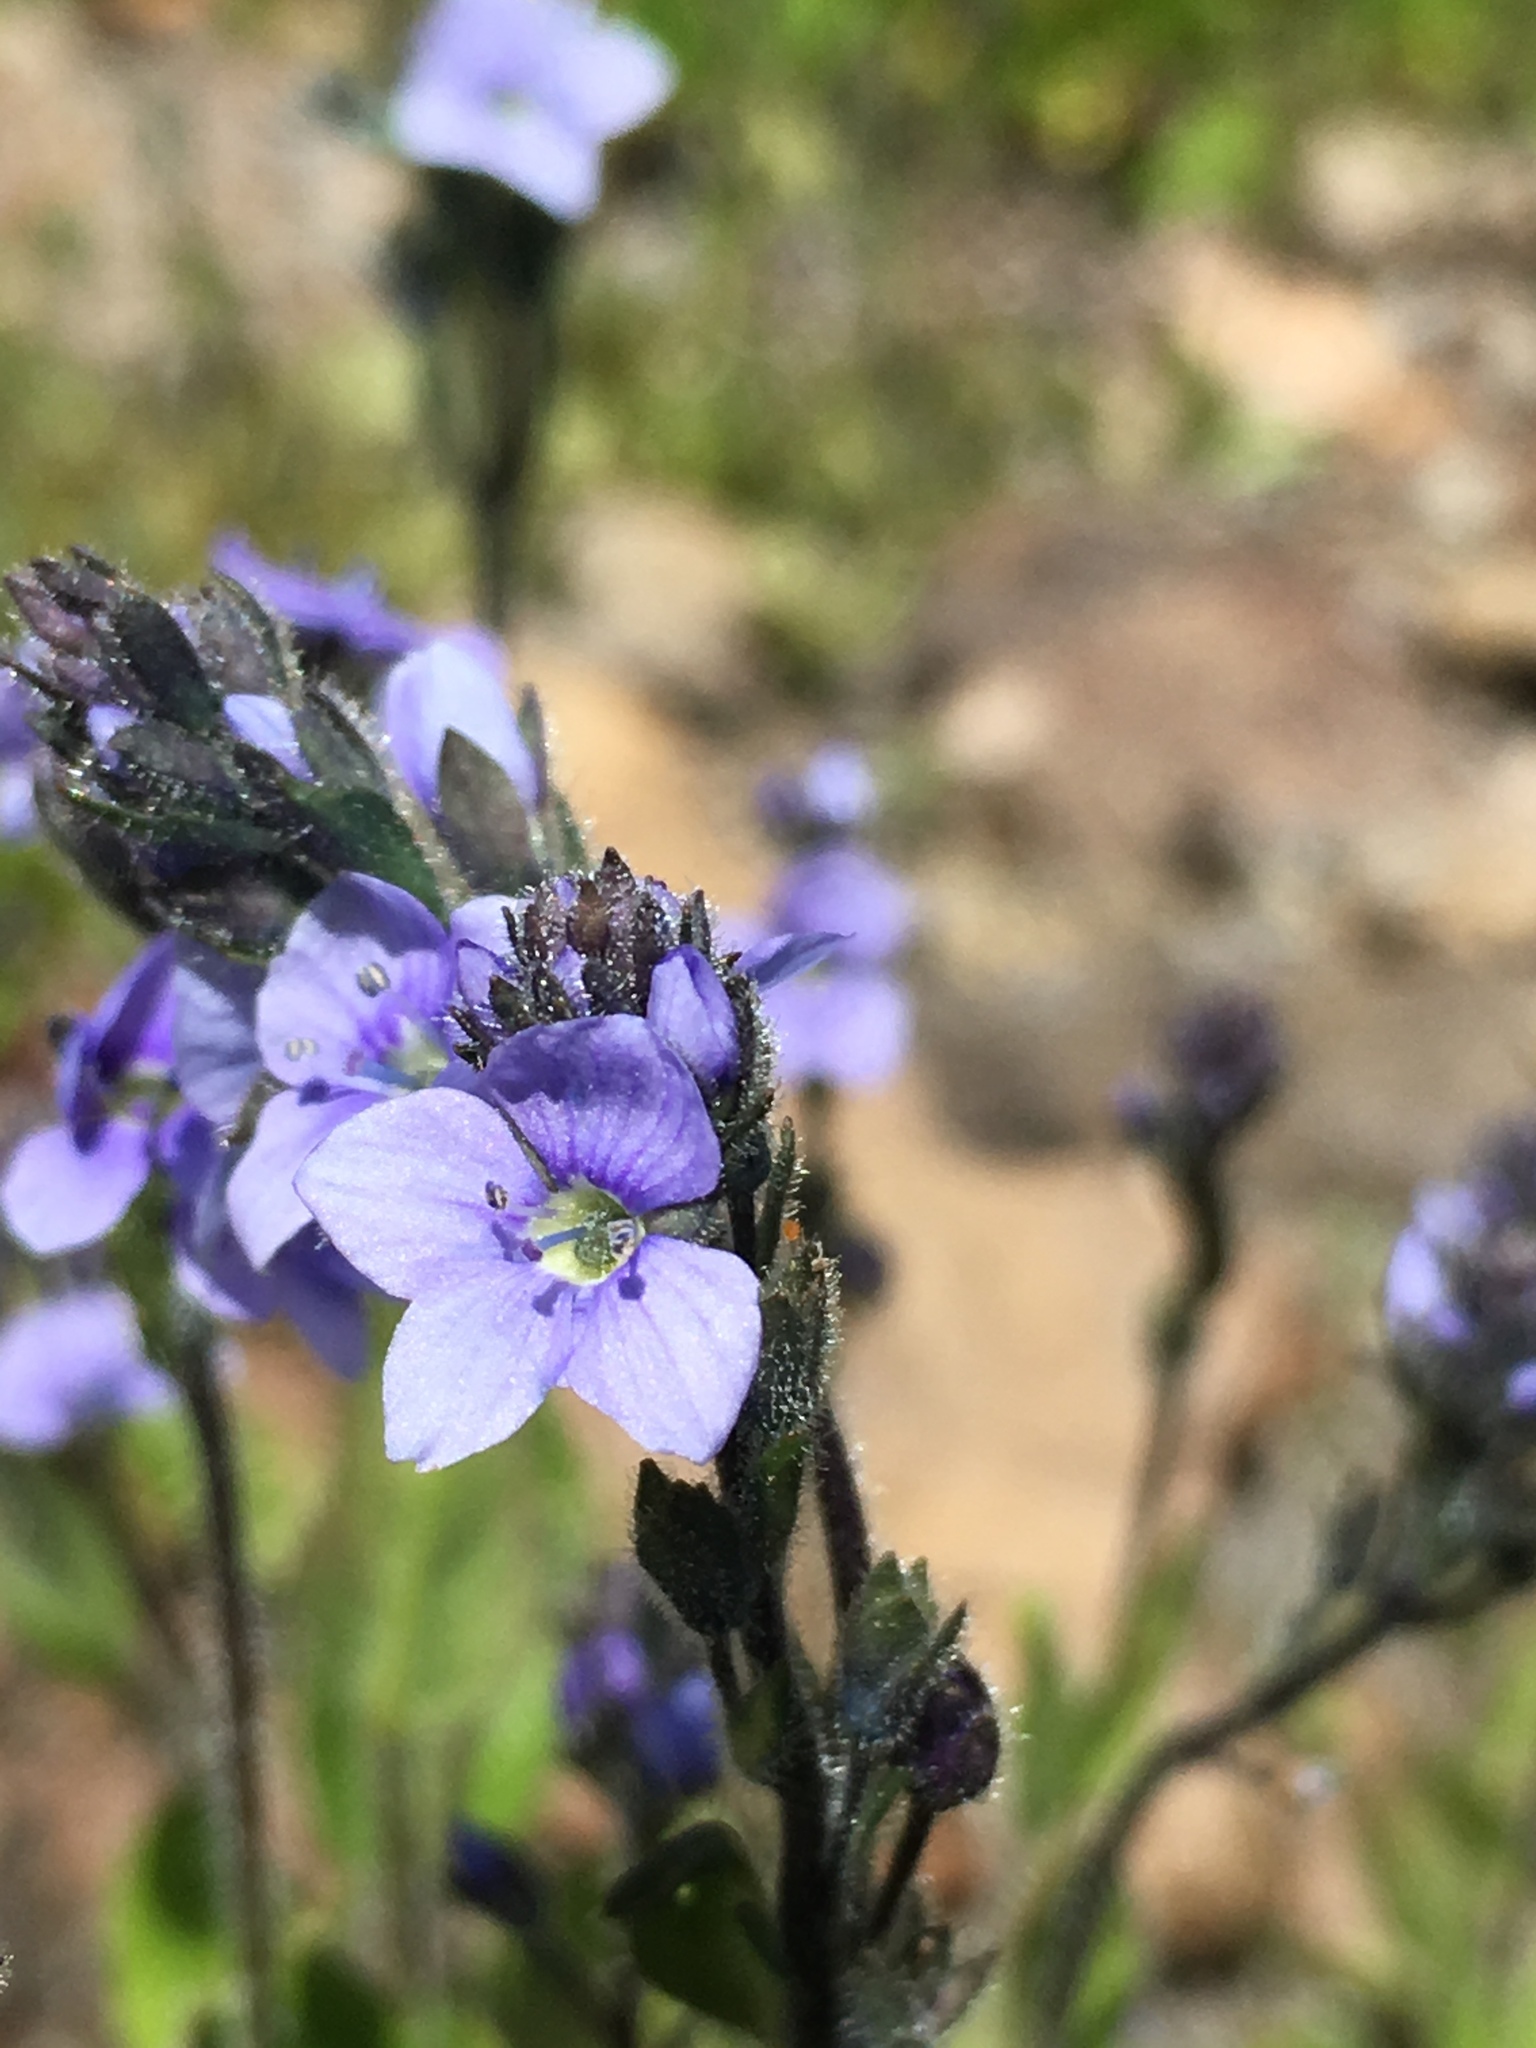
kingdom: Plantae
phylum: Tracheophyta
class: Magnoliopsida
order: Lamiales
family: Plantaginaceae
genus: Veronica
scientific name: Veronica wormskjoldii
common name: American alpine speedwell
